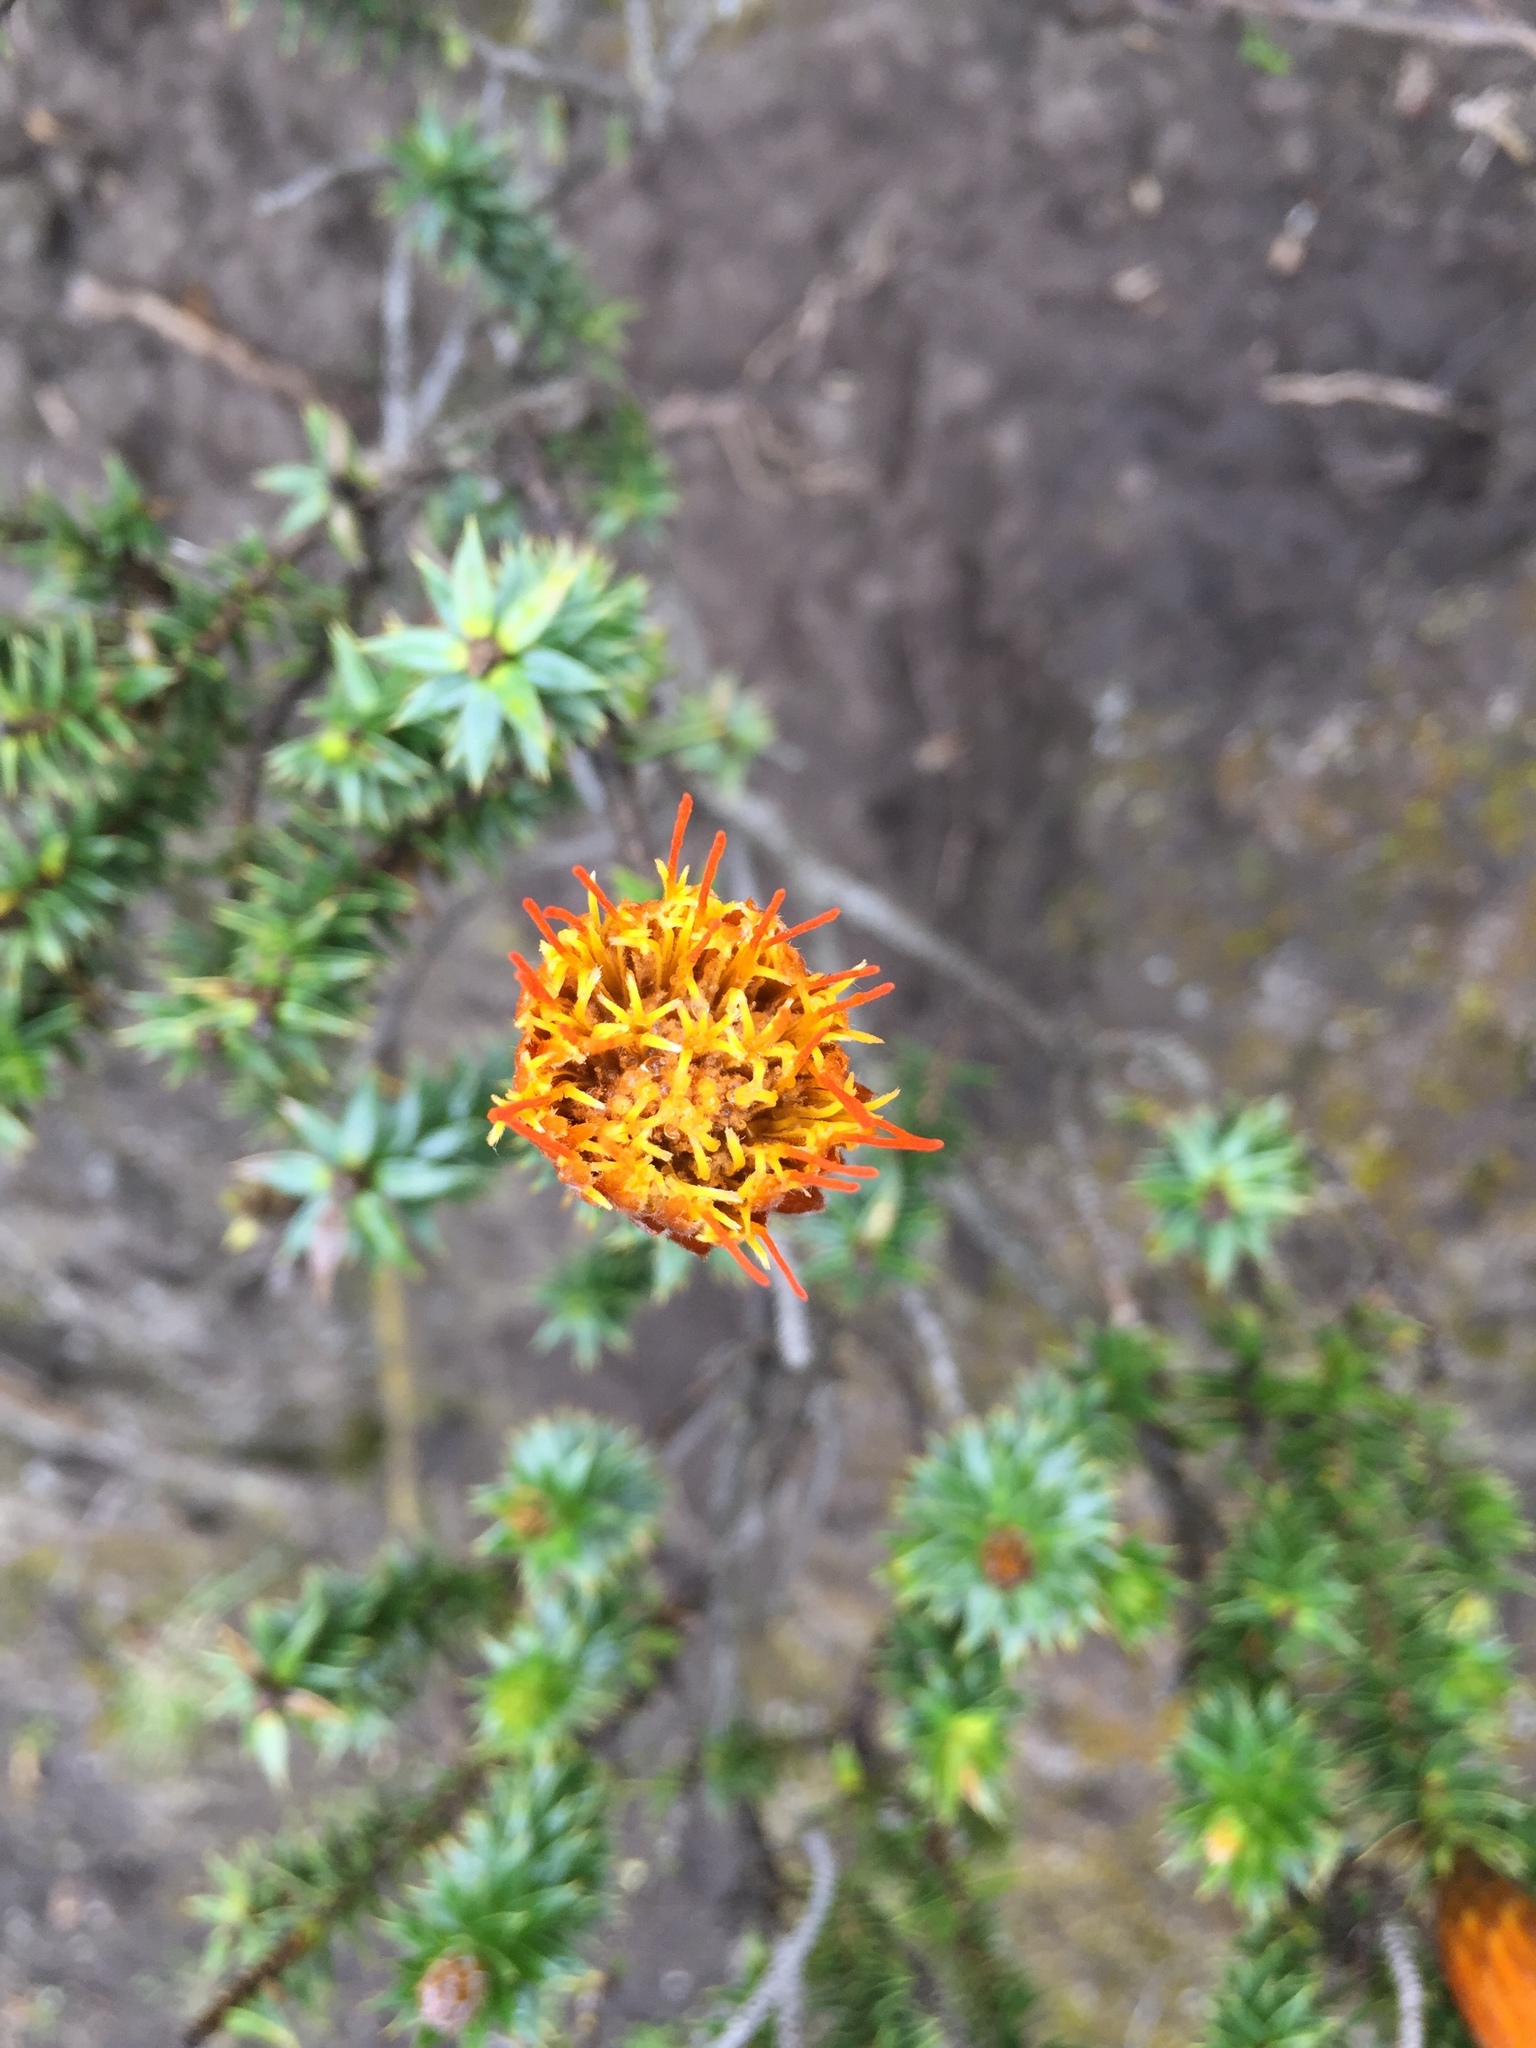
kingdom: Plantae
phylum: Tracheophyta
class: Magnoliopsida
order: Asterales
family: Asteraceae
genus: Chuquiraga
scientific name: Chuquiraga jussieui
